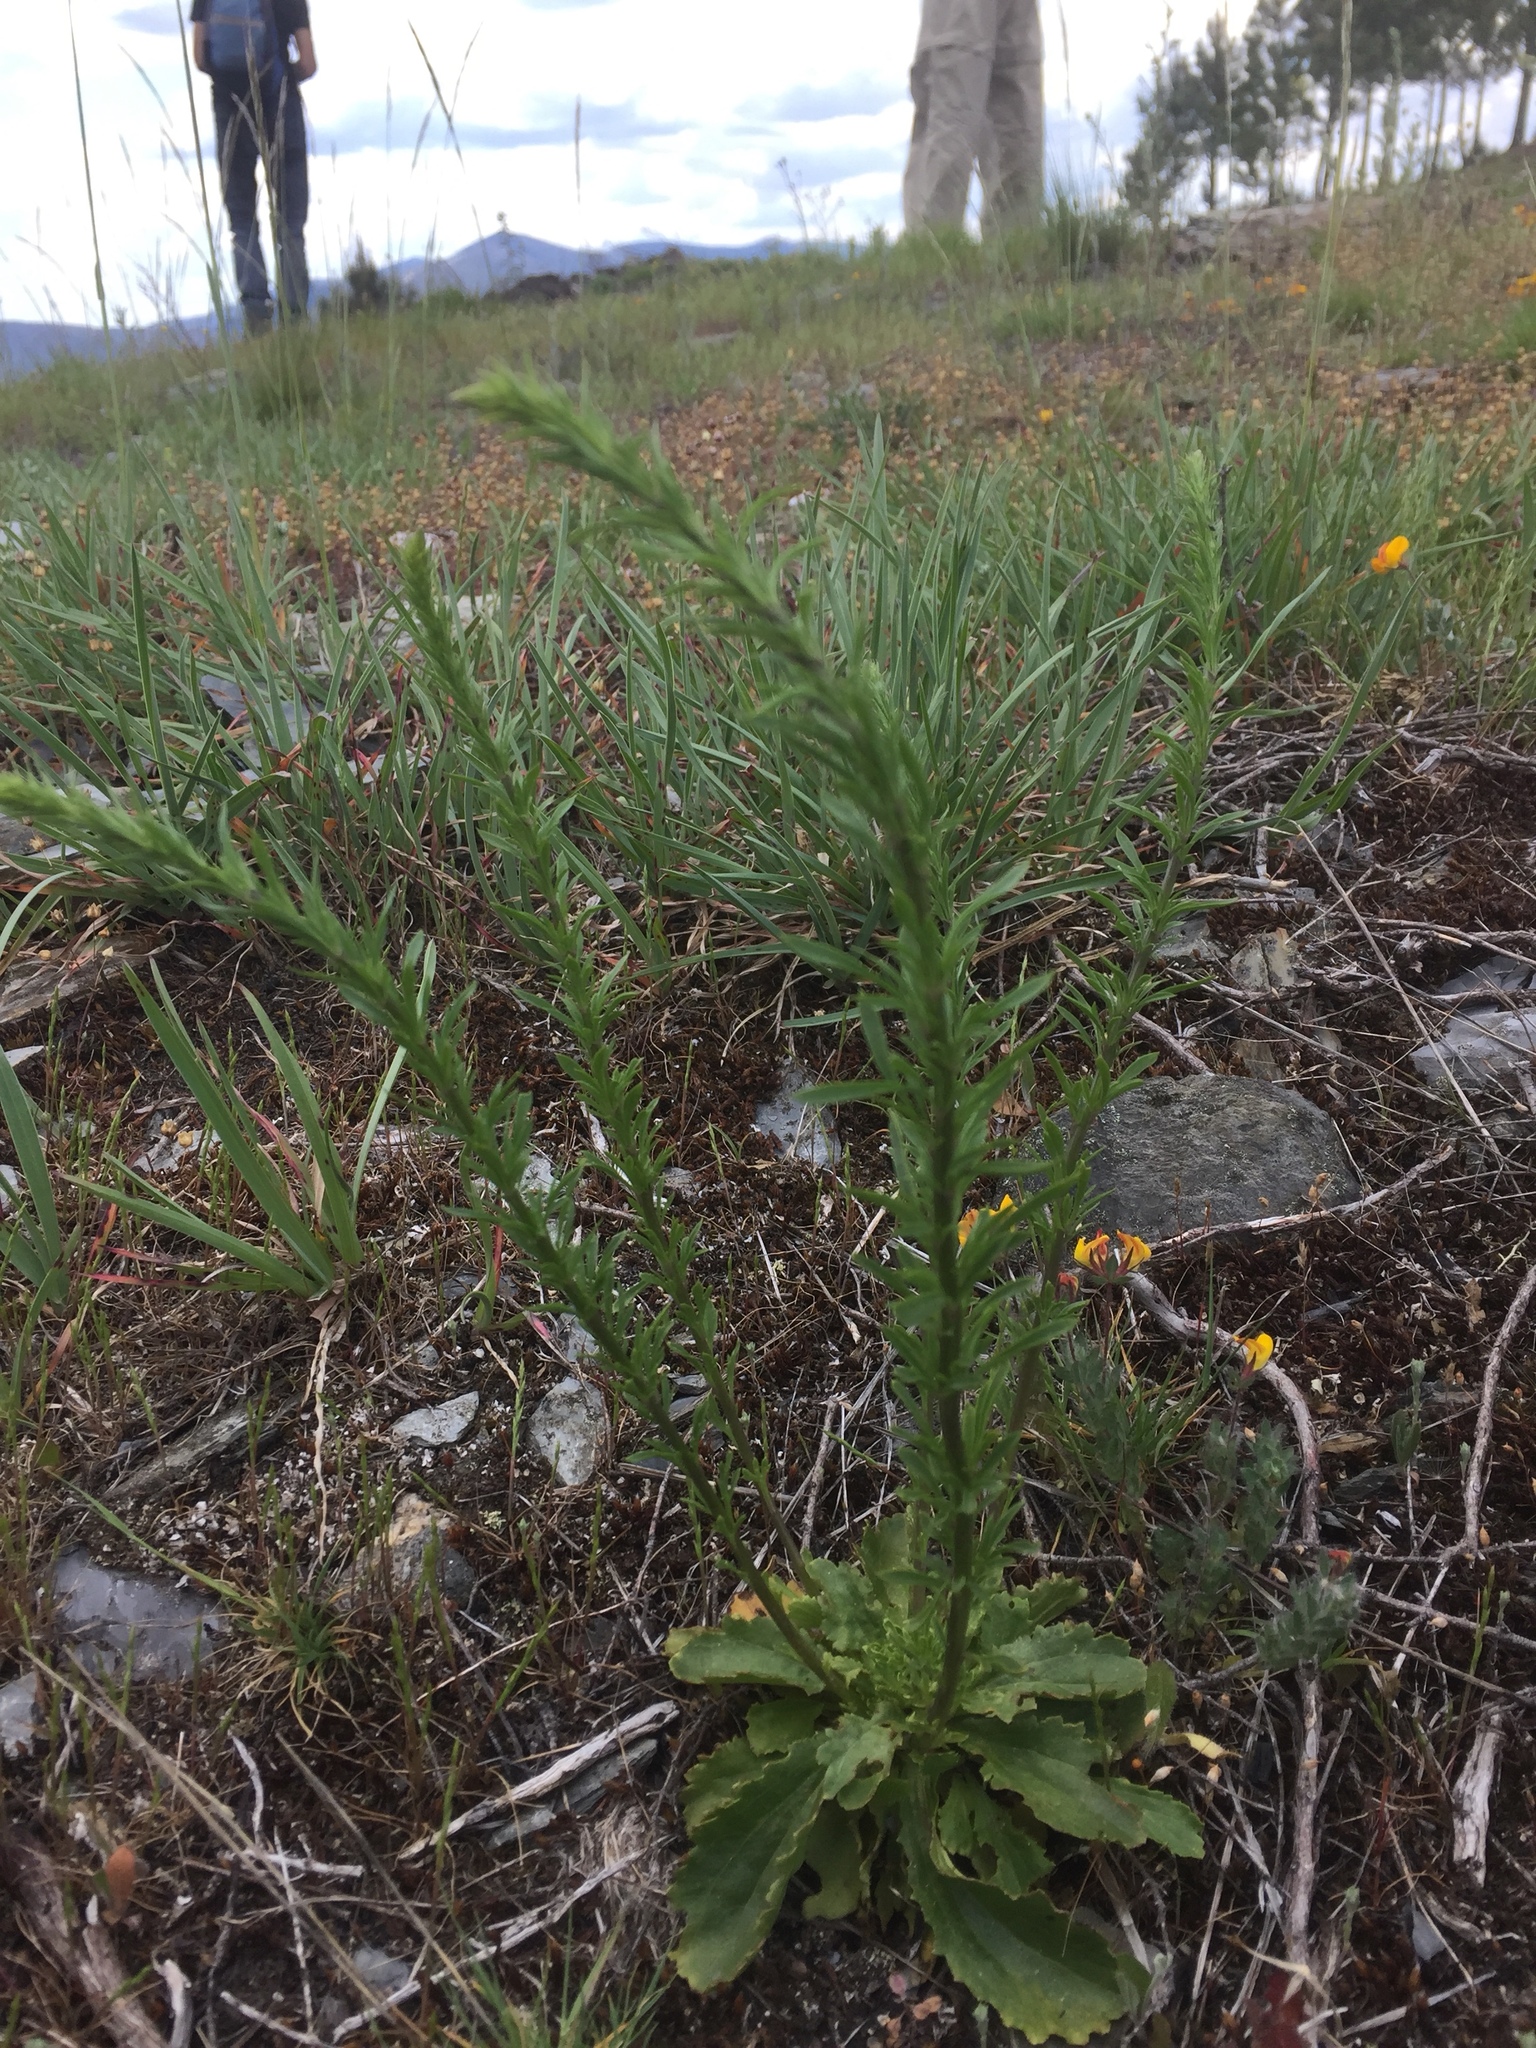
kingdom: Plantae
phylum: Tracheophyta
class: Magnoliopsida
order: Lamiales
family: Plantaginaceae
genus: Anarrhinum
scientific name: Anarrhinum bellidifolium
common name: Daisy-leaved toadflax
